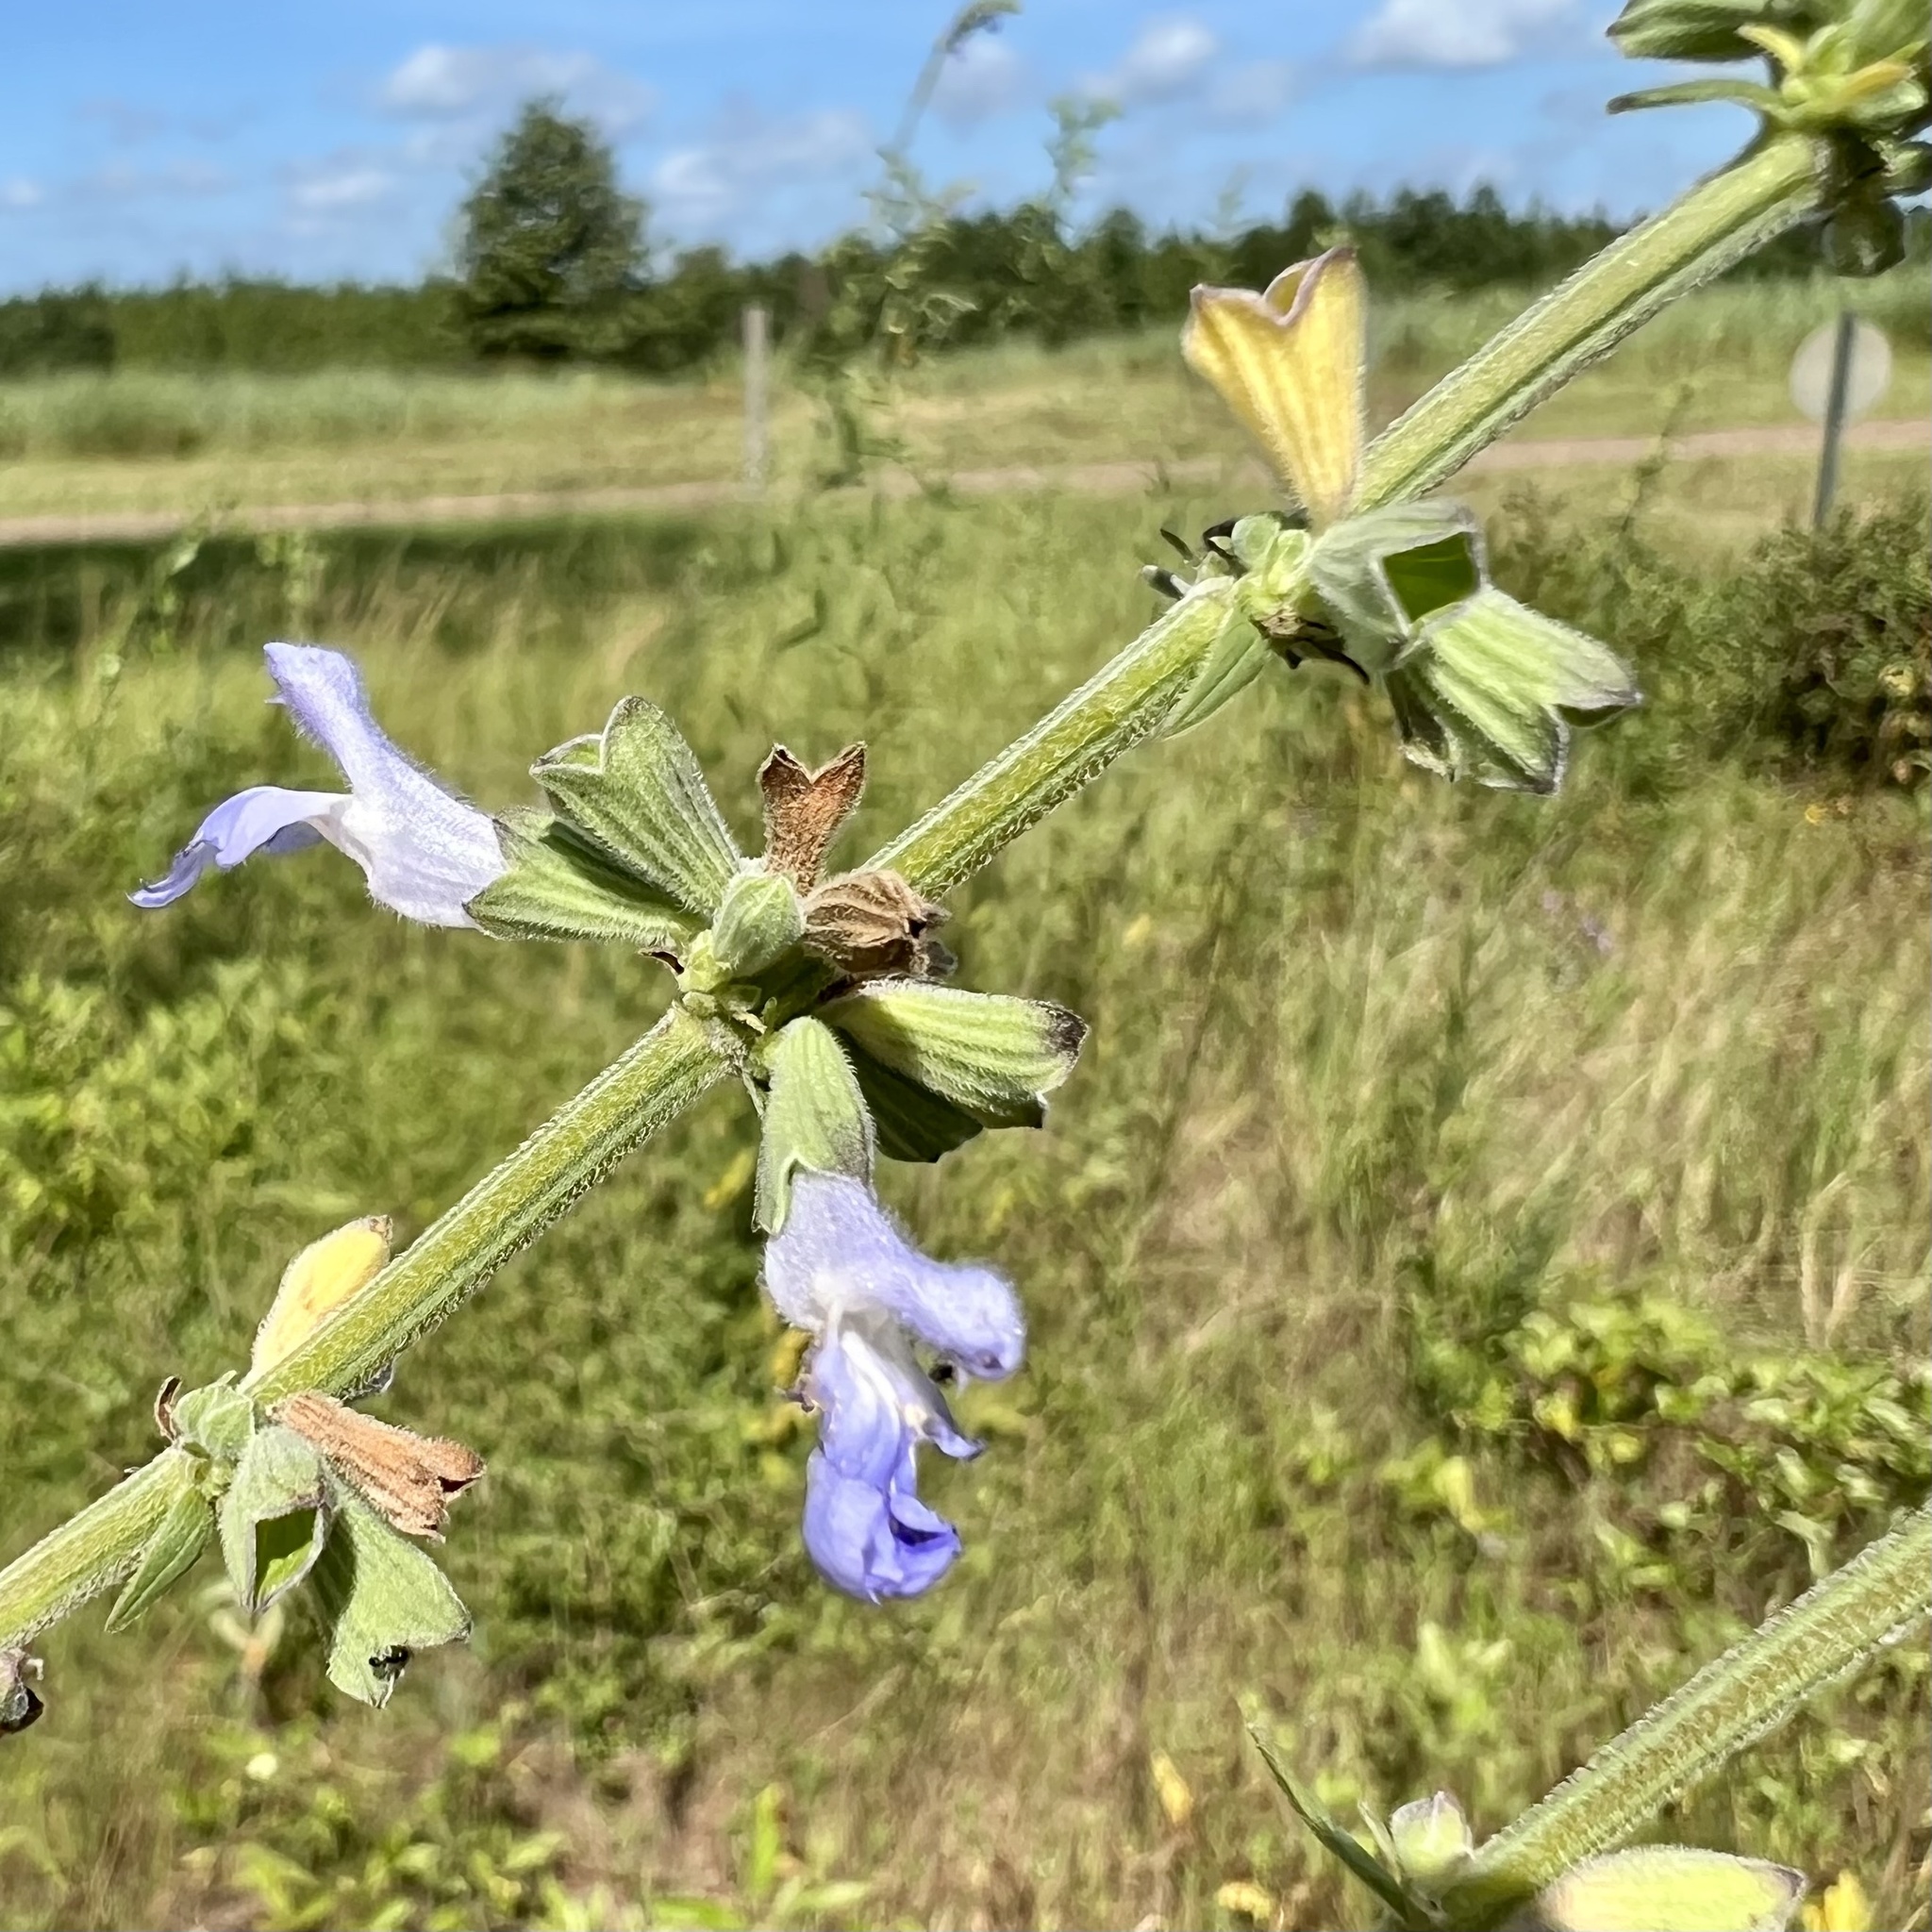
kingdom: Plantae
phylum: Tracheophyta
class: Magnoliopsida
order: Lamiales
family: Lamiaceae
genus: Salvia
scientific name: Salvia azurea
